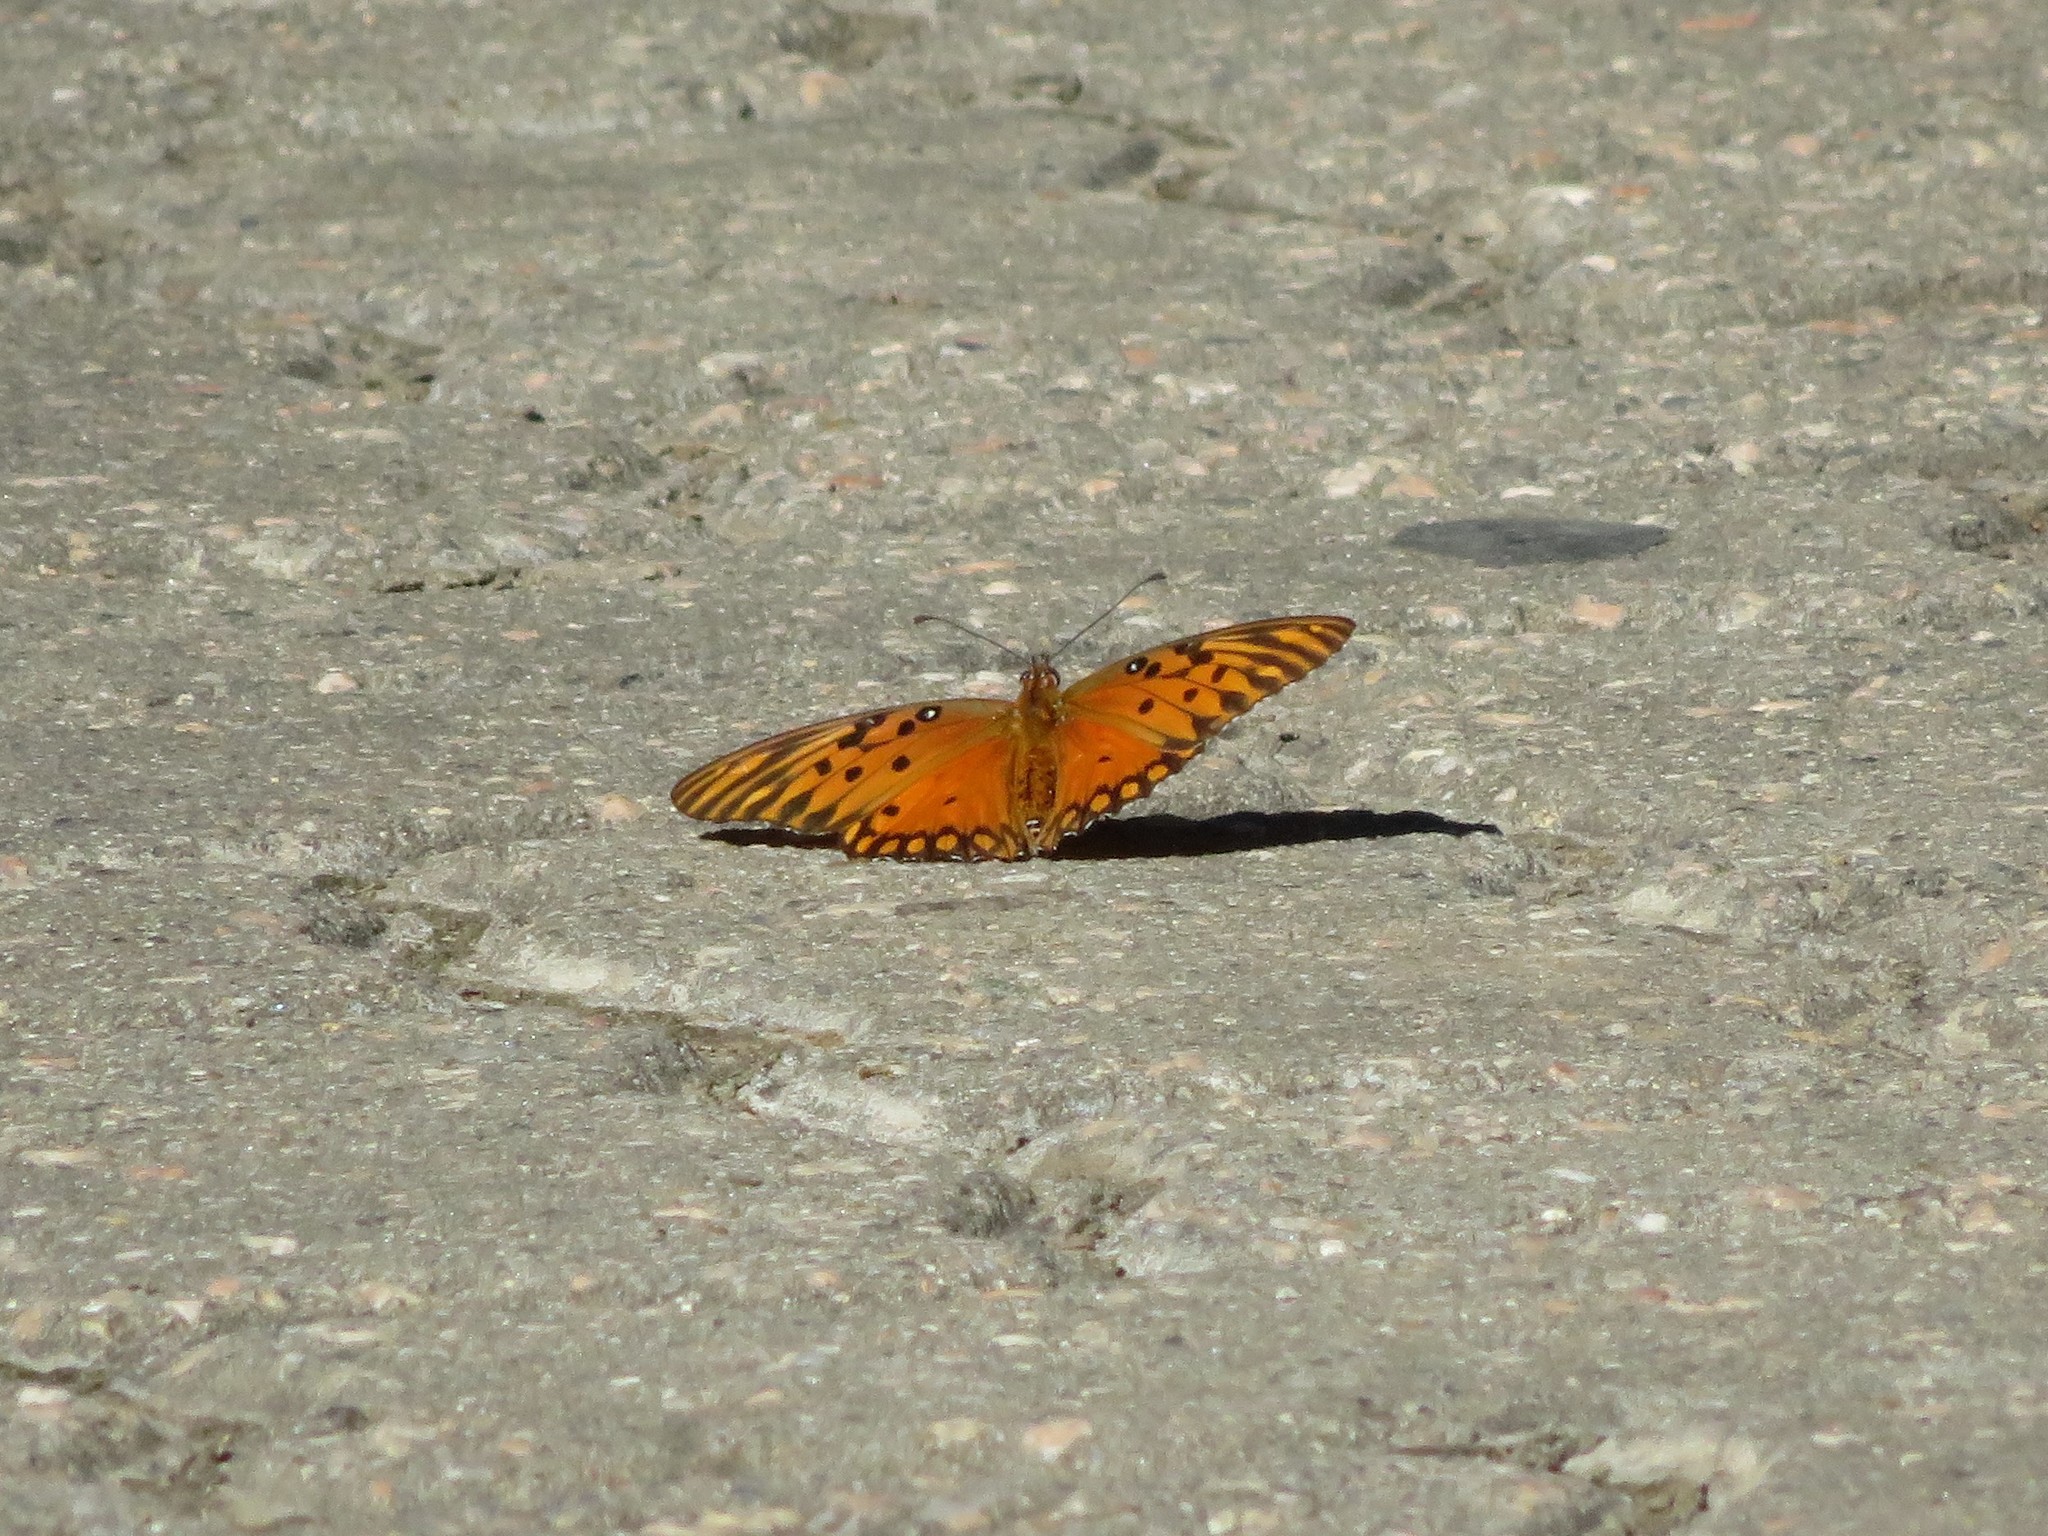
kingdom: Animalia
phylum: Arthropoda
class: Insecta
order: Lepidoptera
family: Nymphalidae
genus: Dione
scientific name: Dione vanillae
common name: Gulf fritillary
